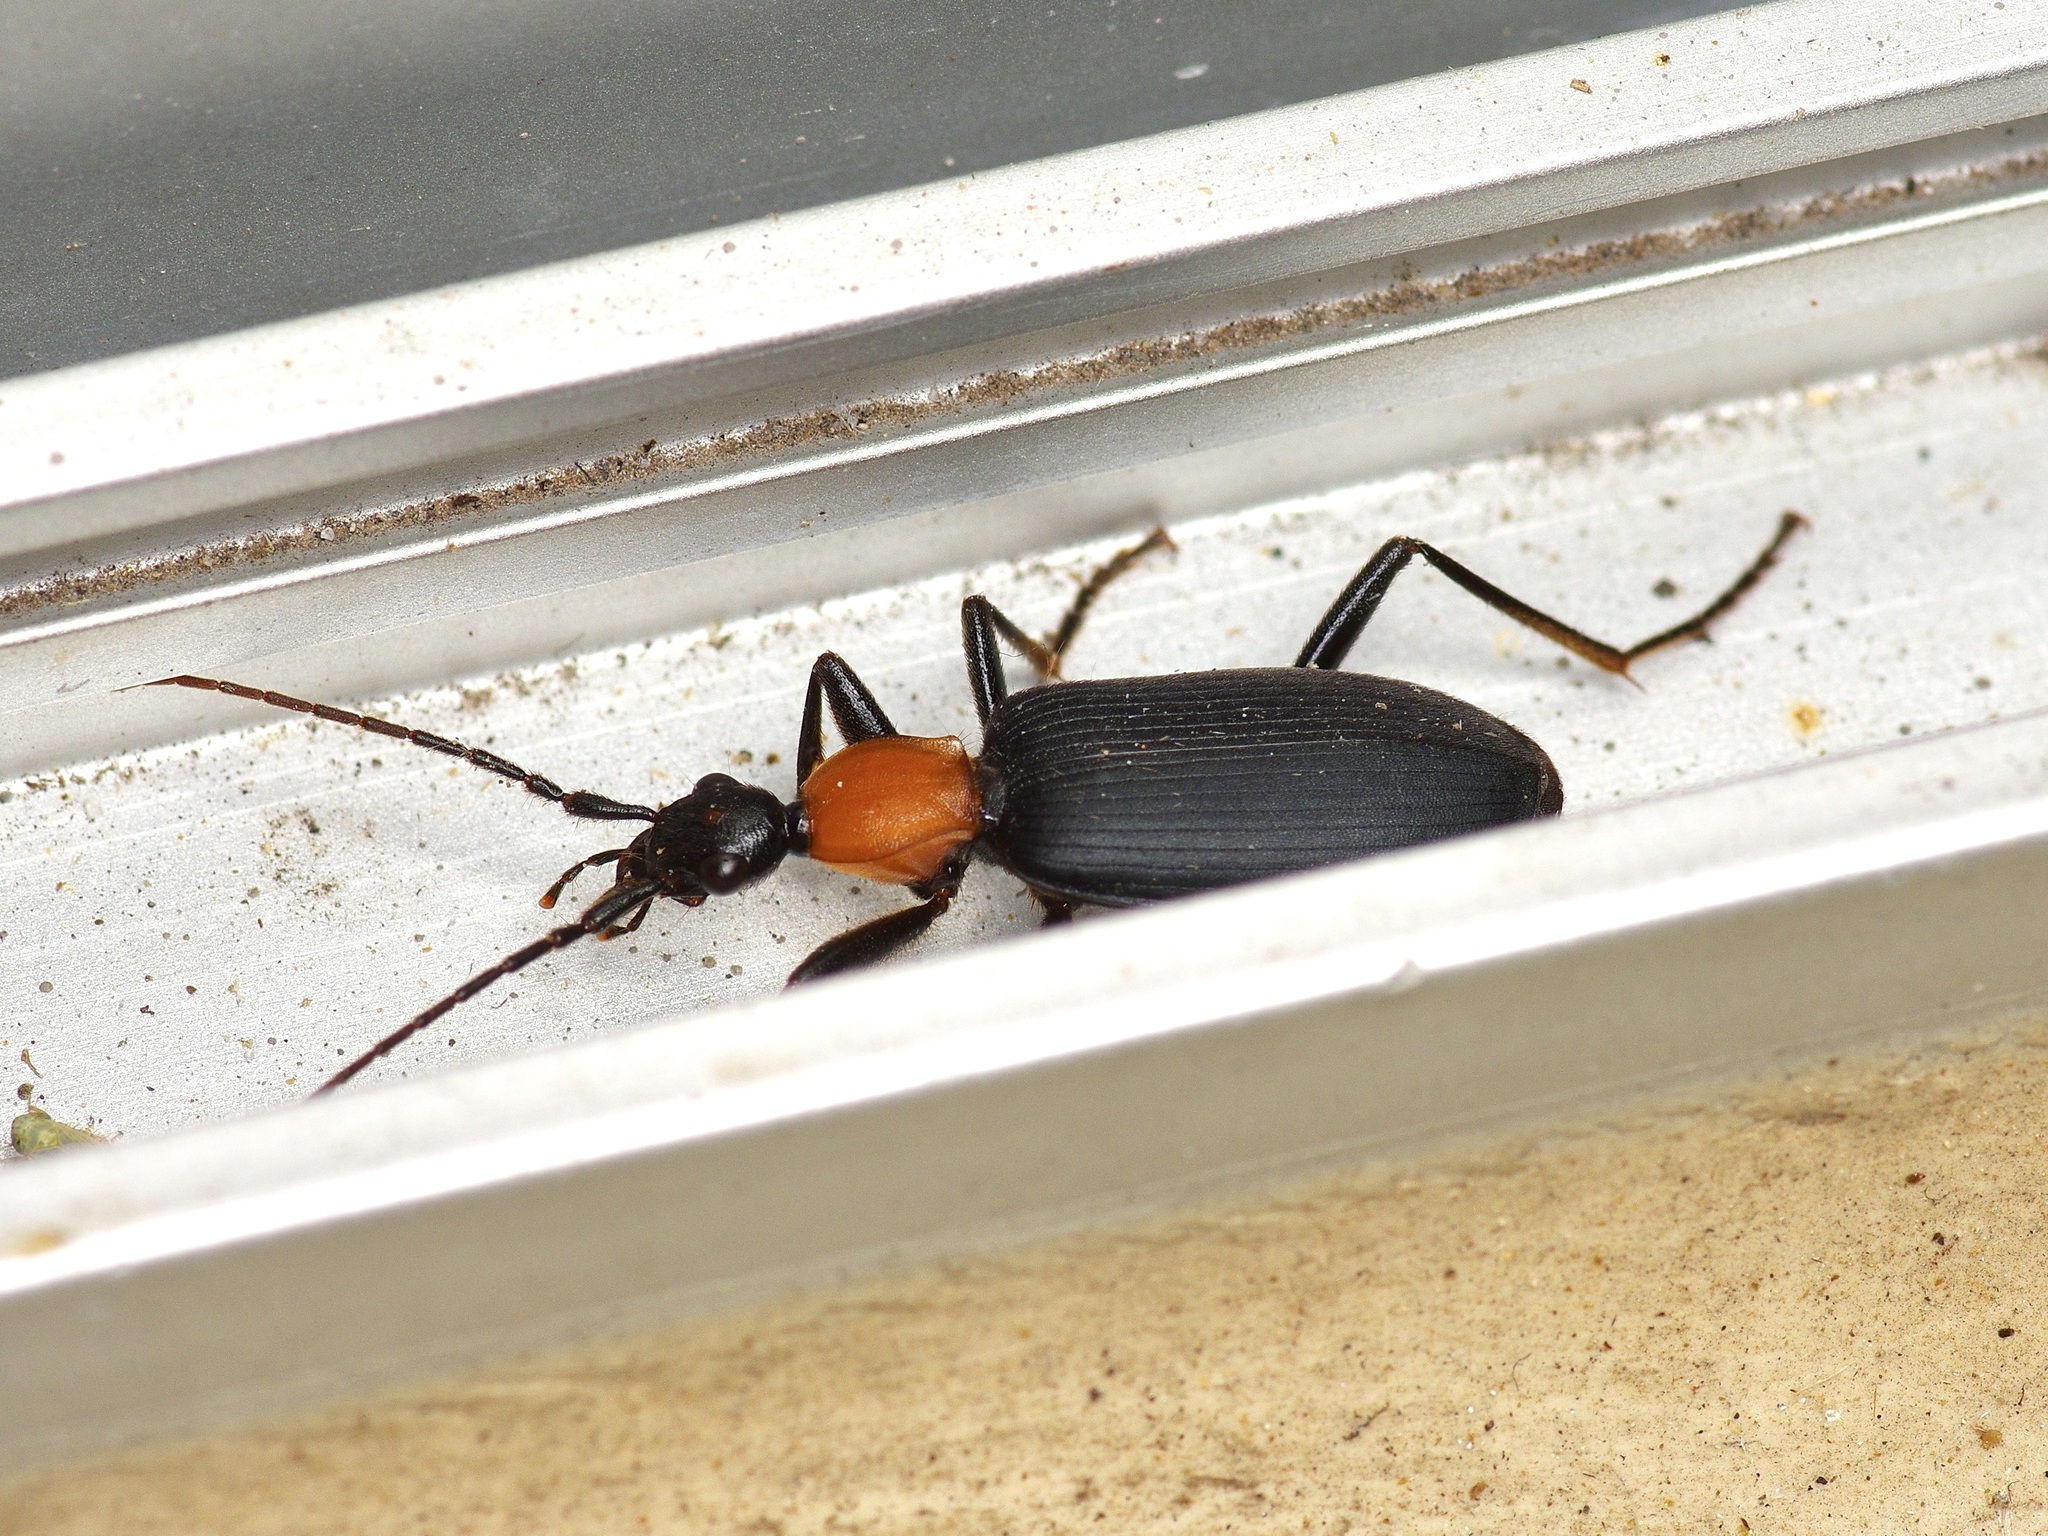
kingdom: Animalia
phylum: Arthropoda
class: Insecta
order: Coleoptera
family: Carabidae
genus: Galerita
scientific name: Galerita bicolor
